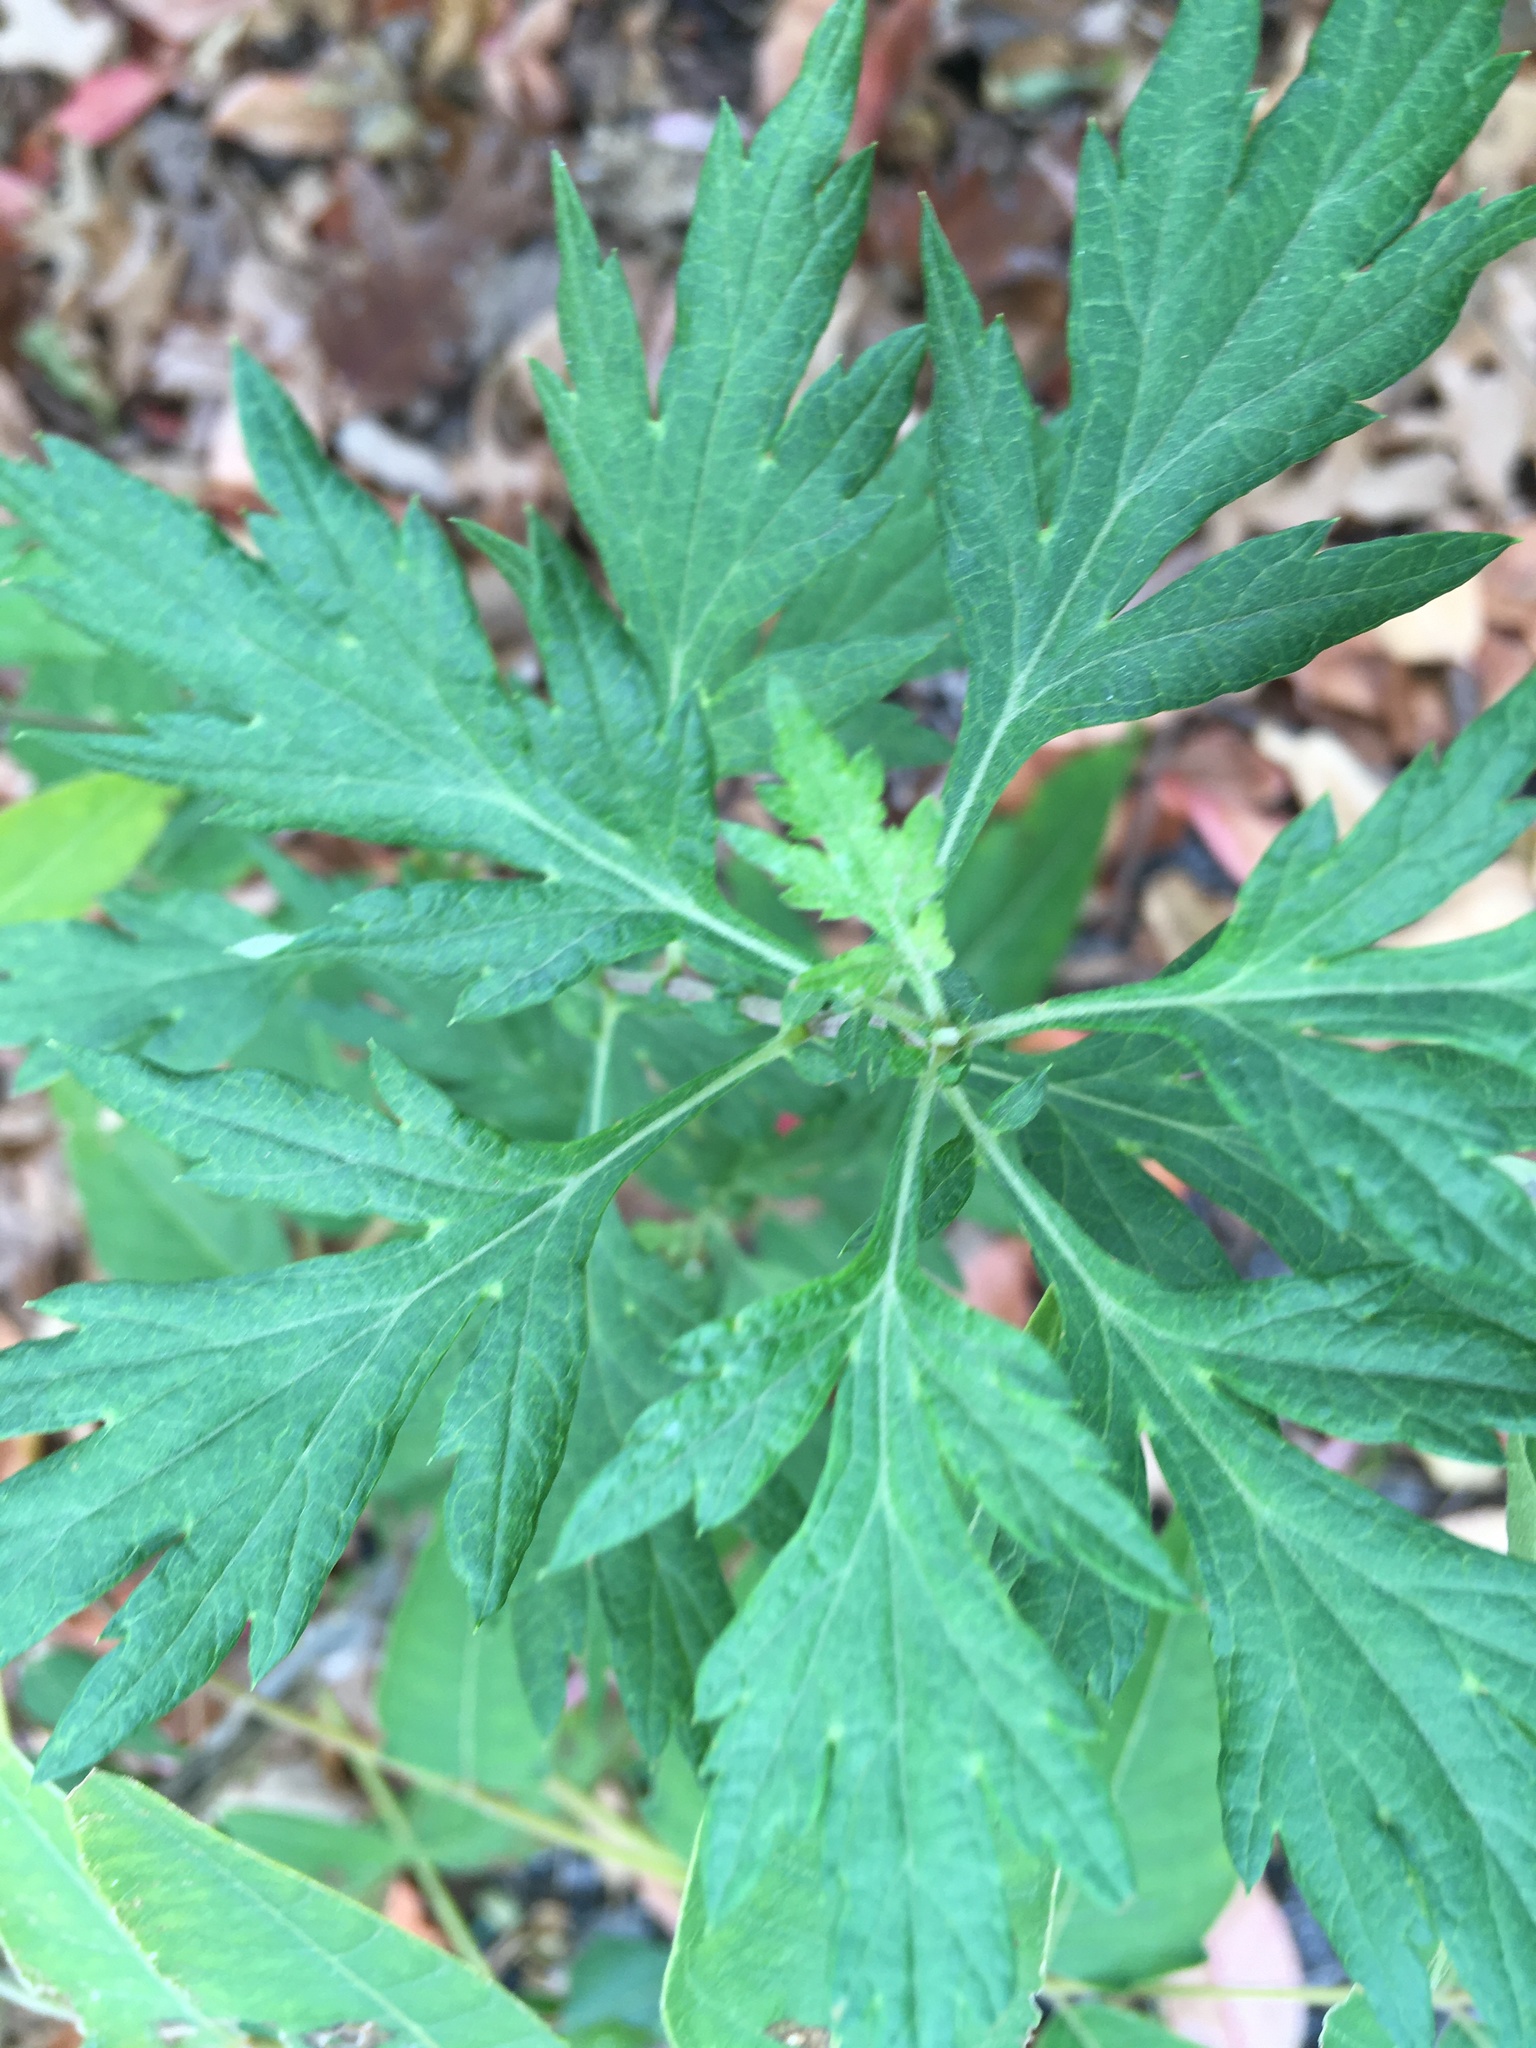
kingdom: Plantae
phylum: Tracheophyta
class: Magnoliopsida
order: Asterales
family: Asteraceae
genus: Artemisia
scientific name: Artemisia vulgaris
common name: Mugwort
